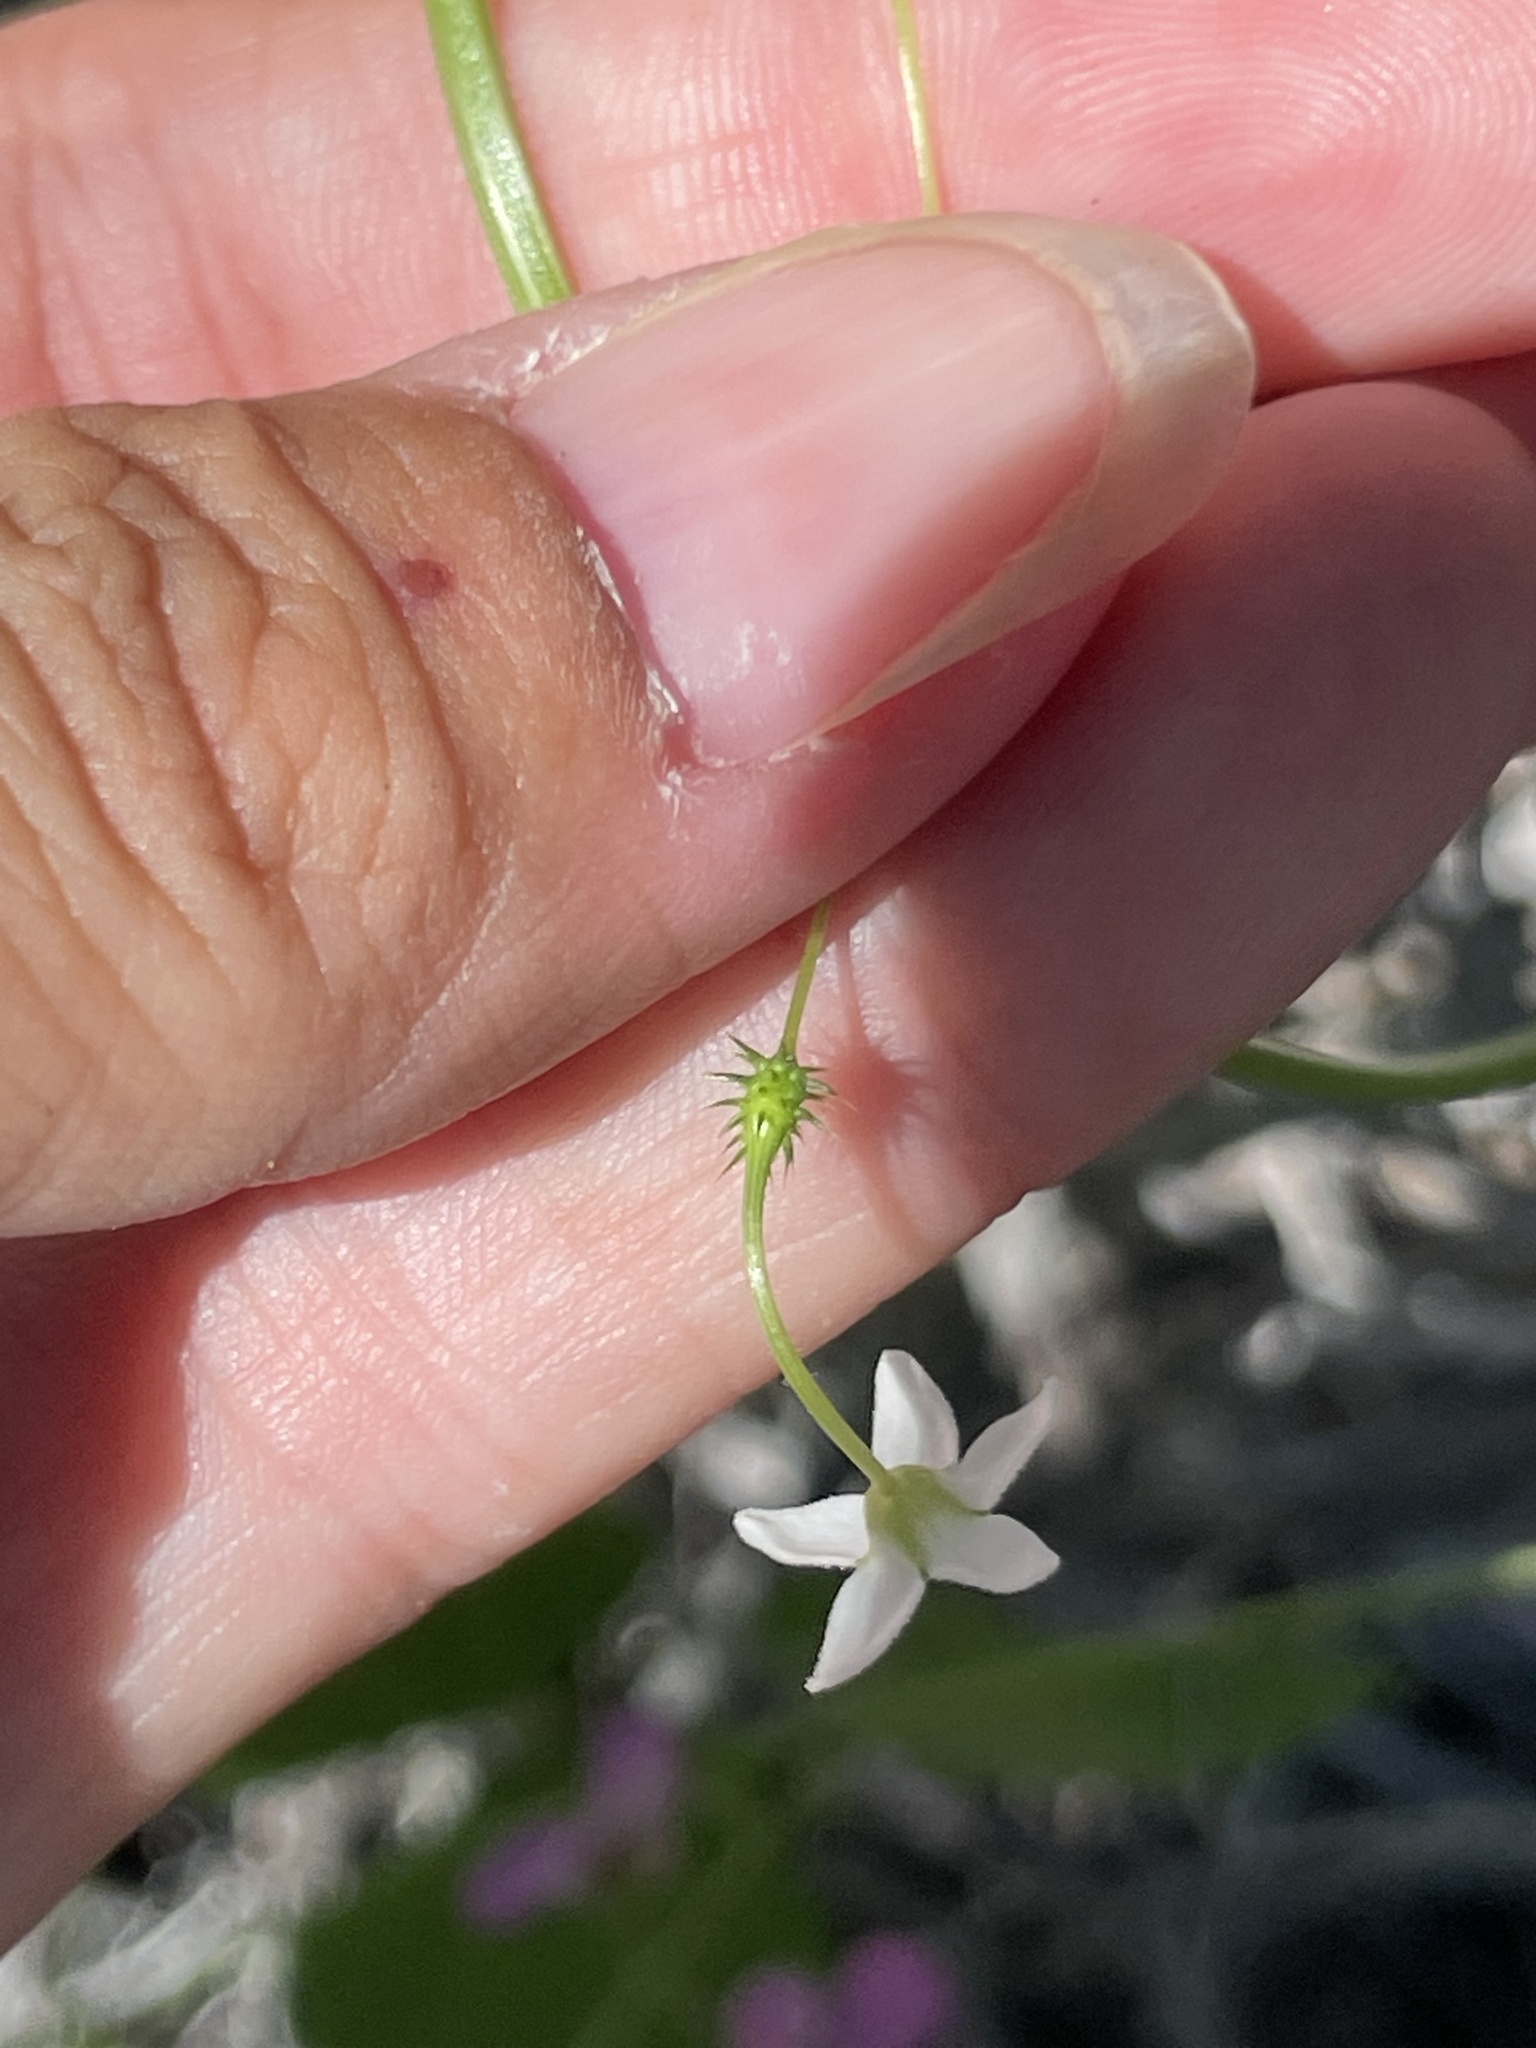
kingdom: Plantae
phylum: Tracheophyta
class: Magnoliopsida
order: Cucurbitales
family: Cucurbitaceae
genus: Echinopepon
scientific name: Echinopepon minimus
